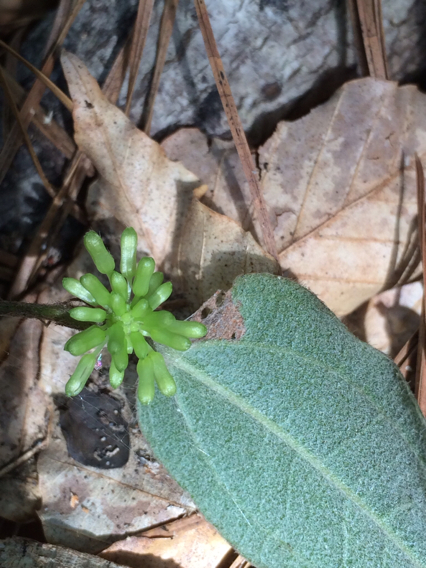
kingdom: Plantae
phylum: Tracheophyta
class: Liliopsida
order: Liliales
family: Smilacaceae
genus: Smilax
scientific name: Smilax pumila
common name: Sarsaparilla-vine
